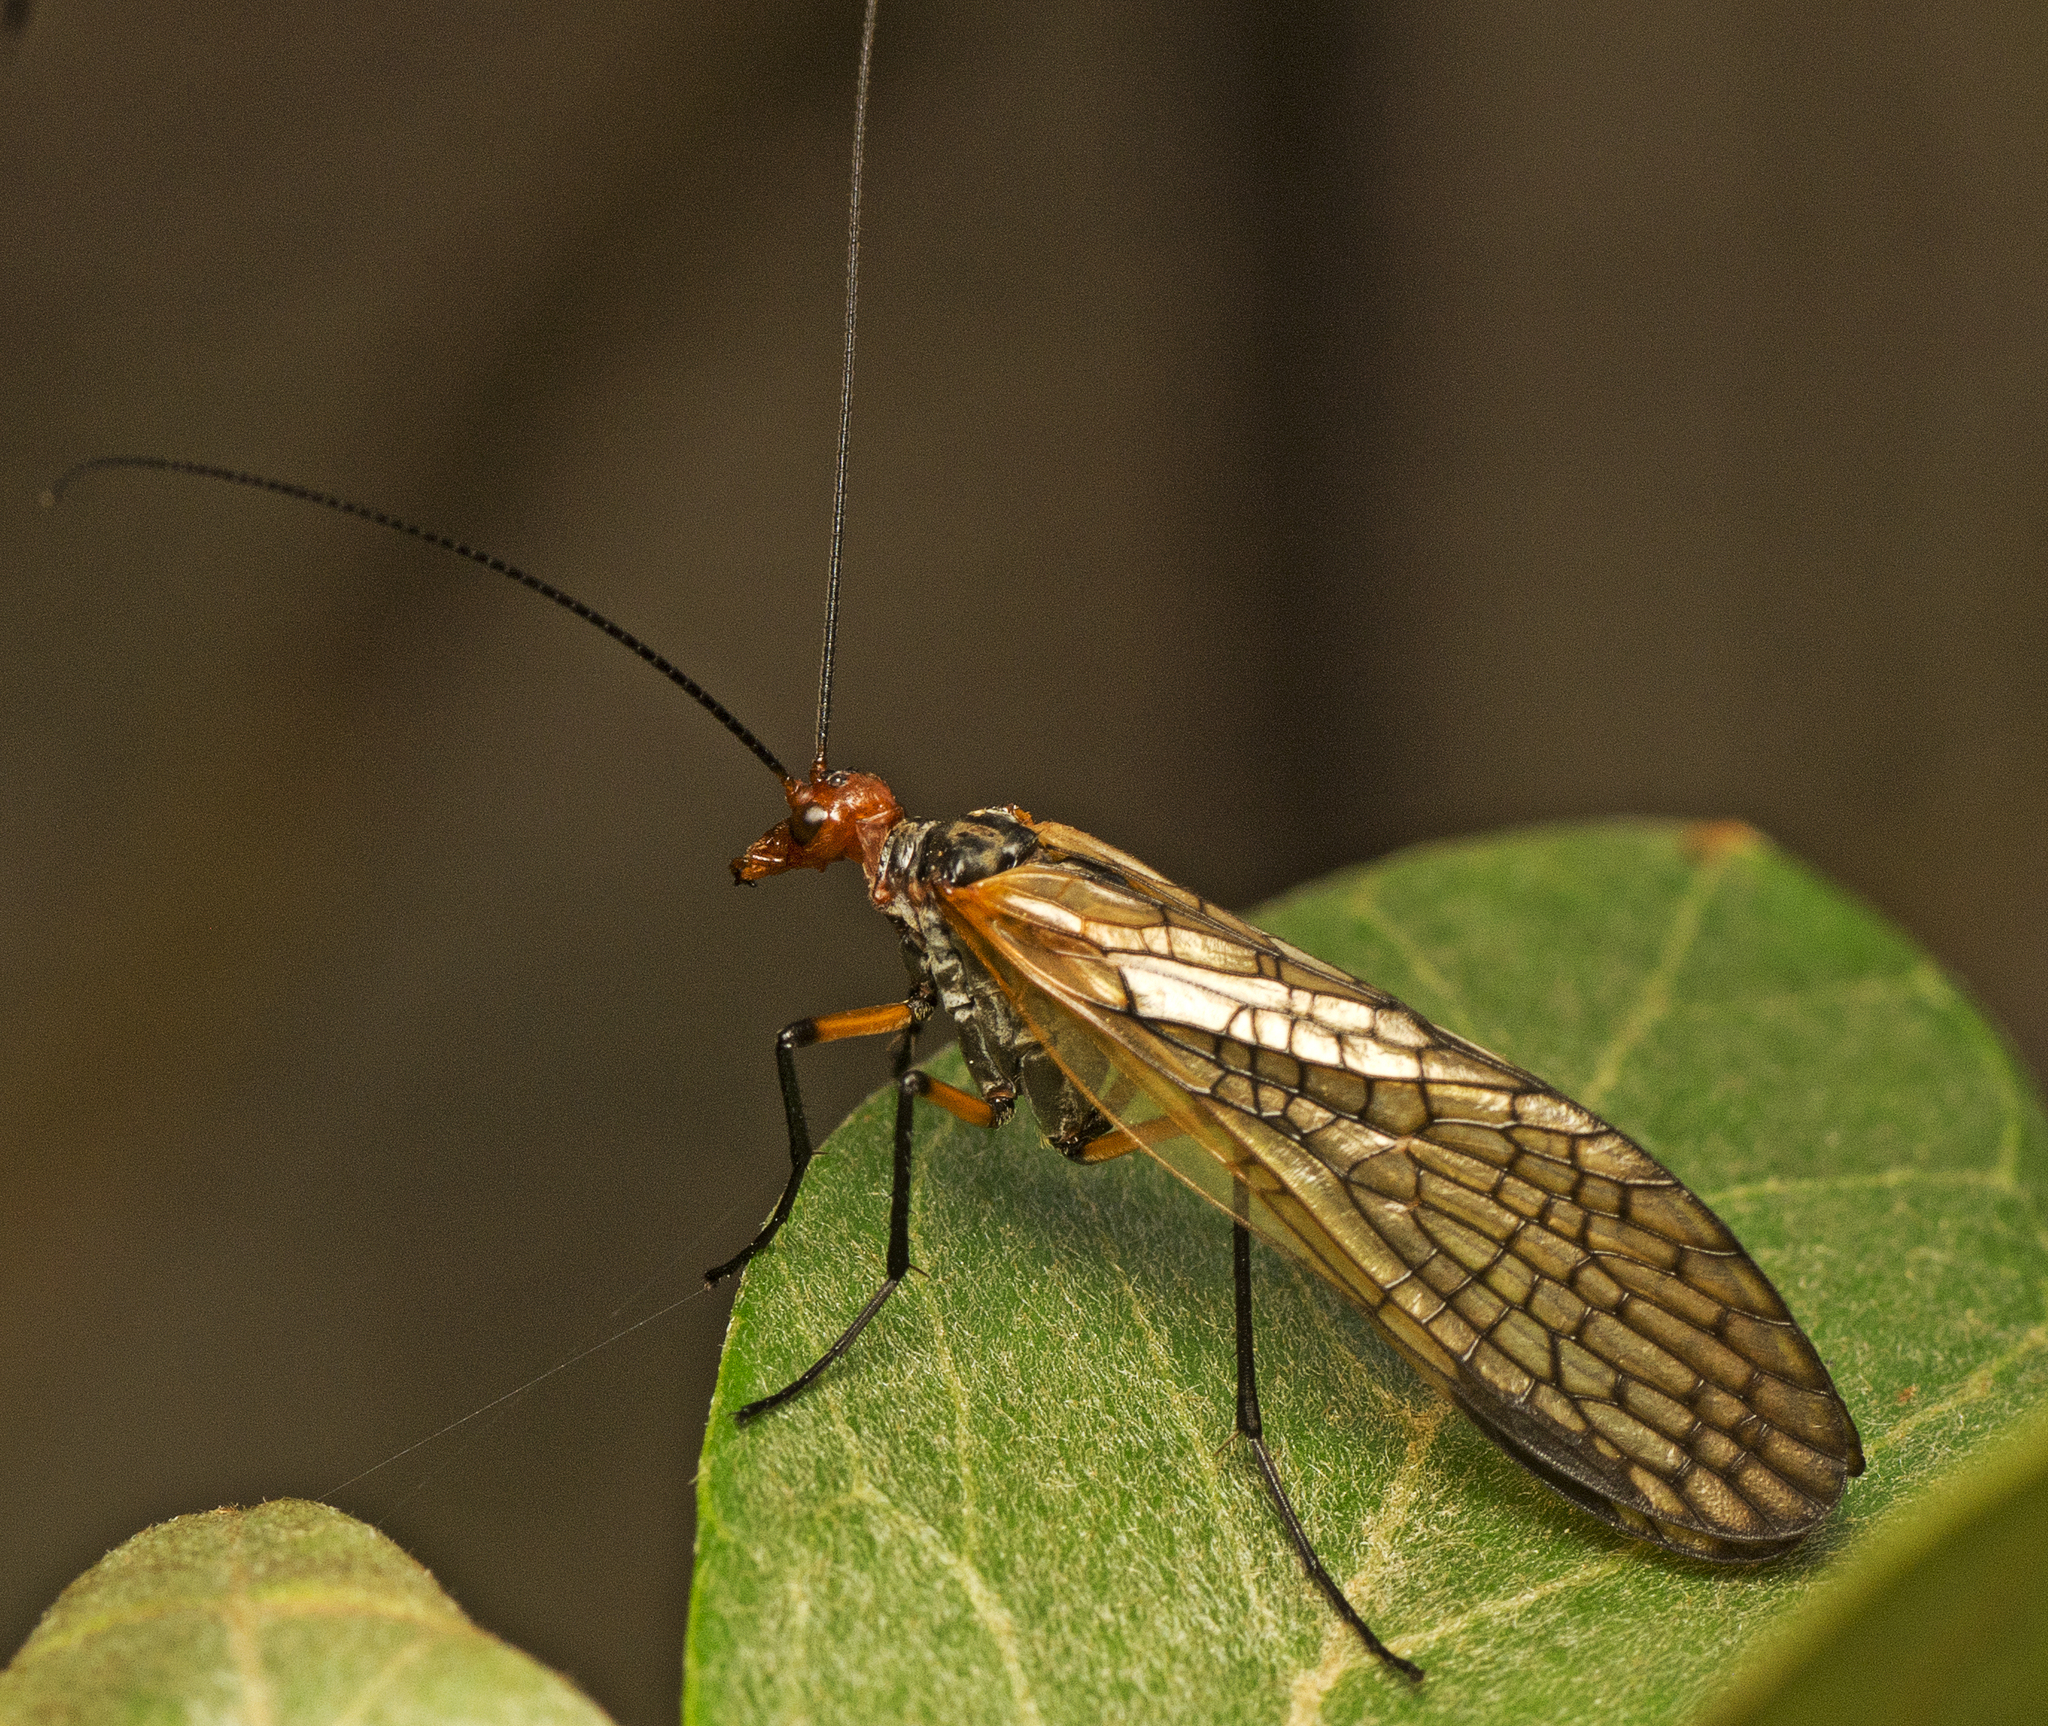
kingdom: Animalia
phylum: Arthropoda
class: Insecta
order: Mecoptera
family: Choristidae
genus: Chorista
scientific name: Chorista australis
